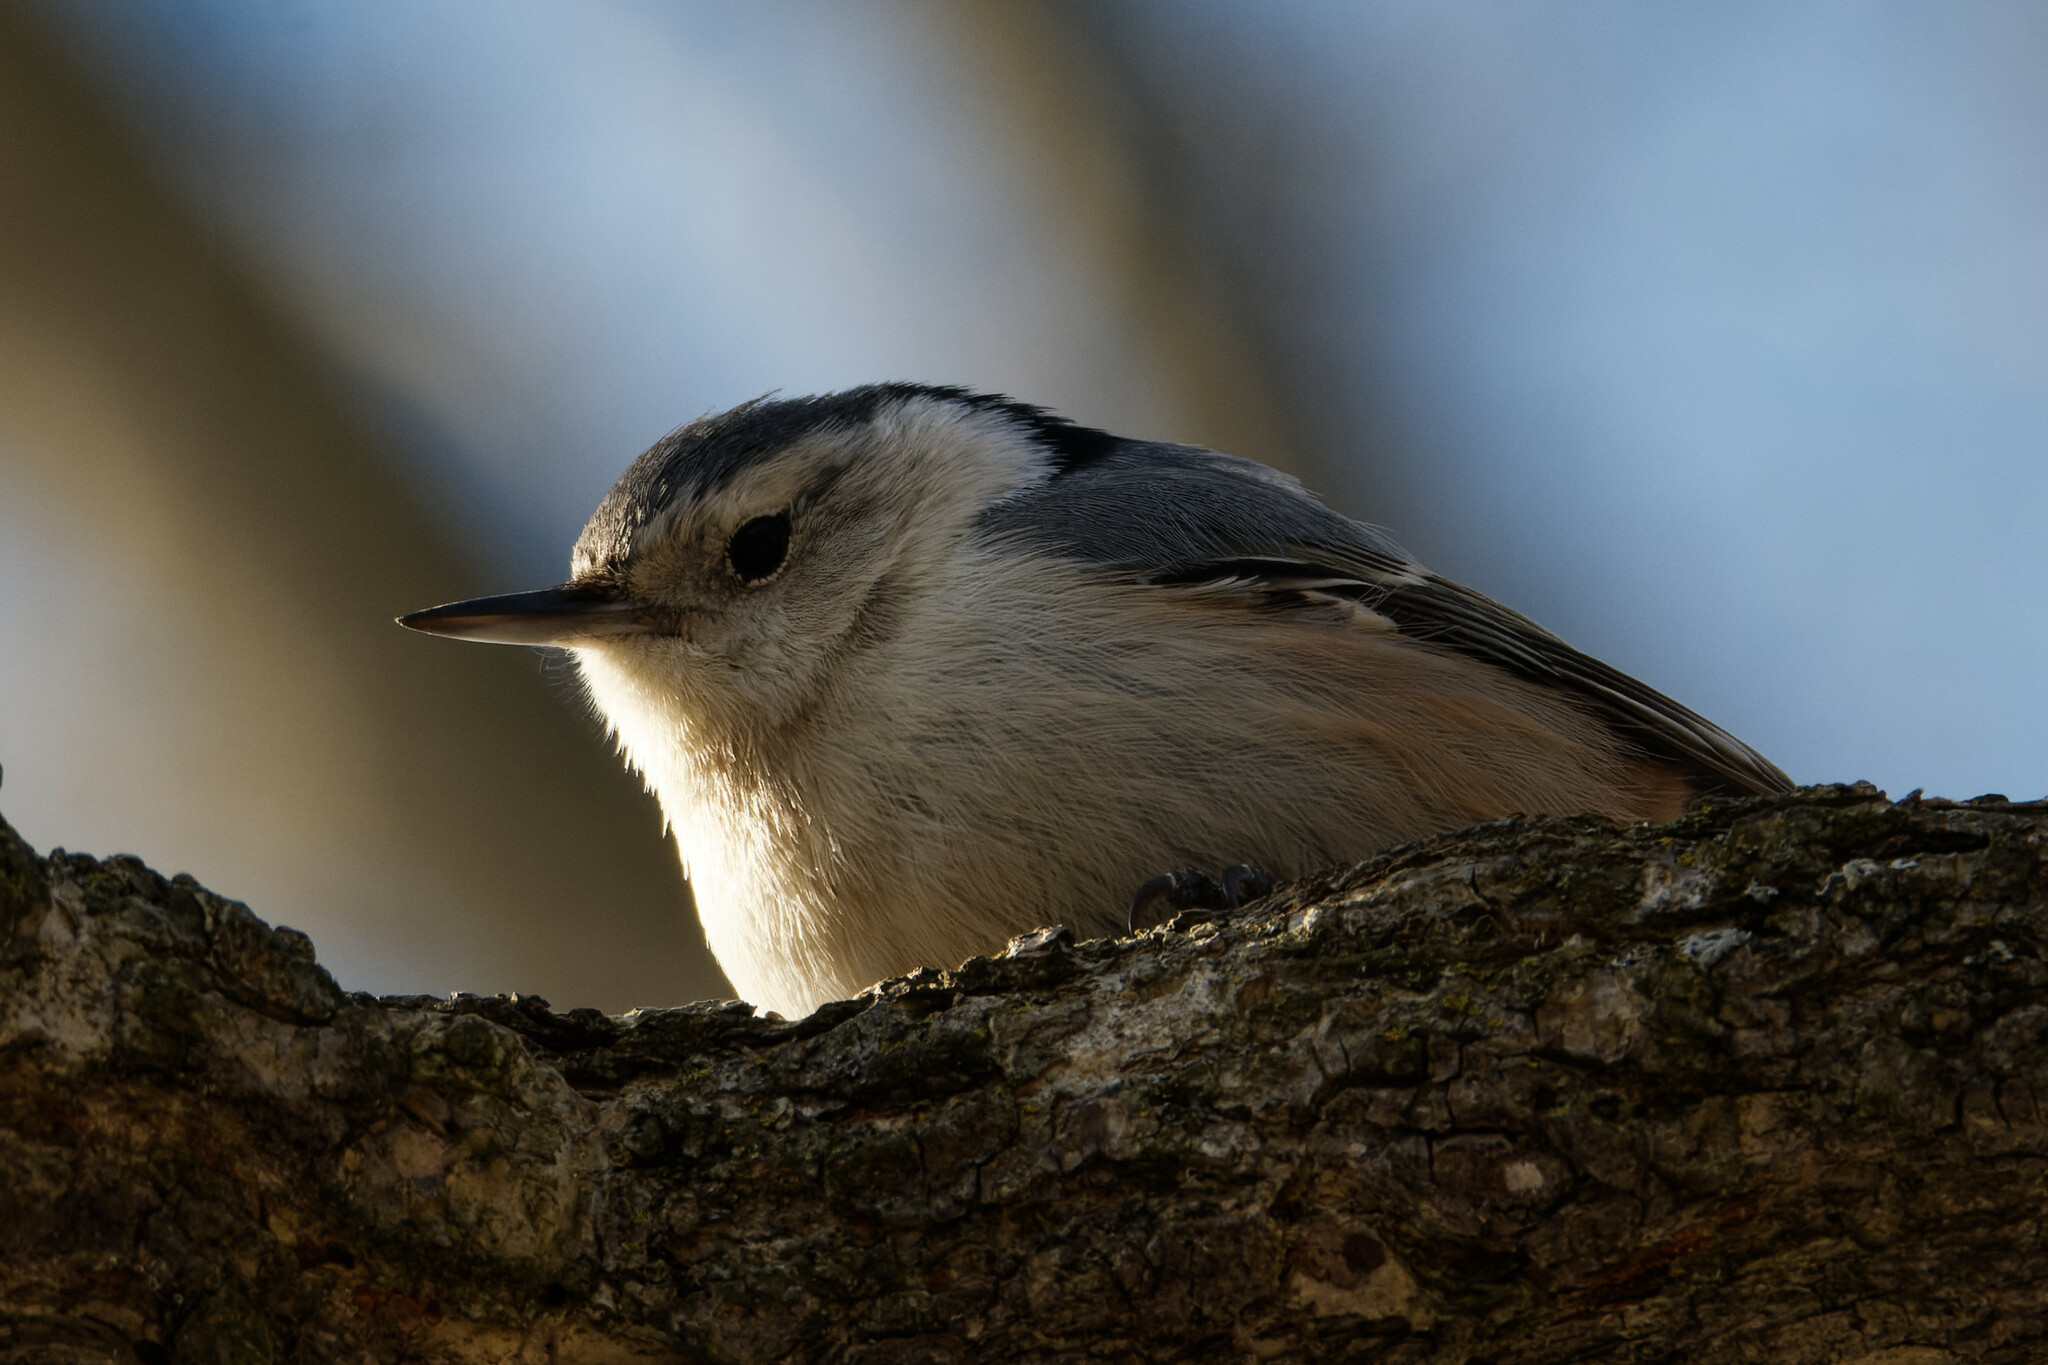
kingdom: Animalia
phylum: Chordata
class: Aves
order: Passeriformes
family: Sittidae
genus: Sitta
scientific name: Sitta carolinensis
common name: White-breasted nuthatch
